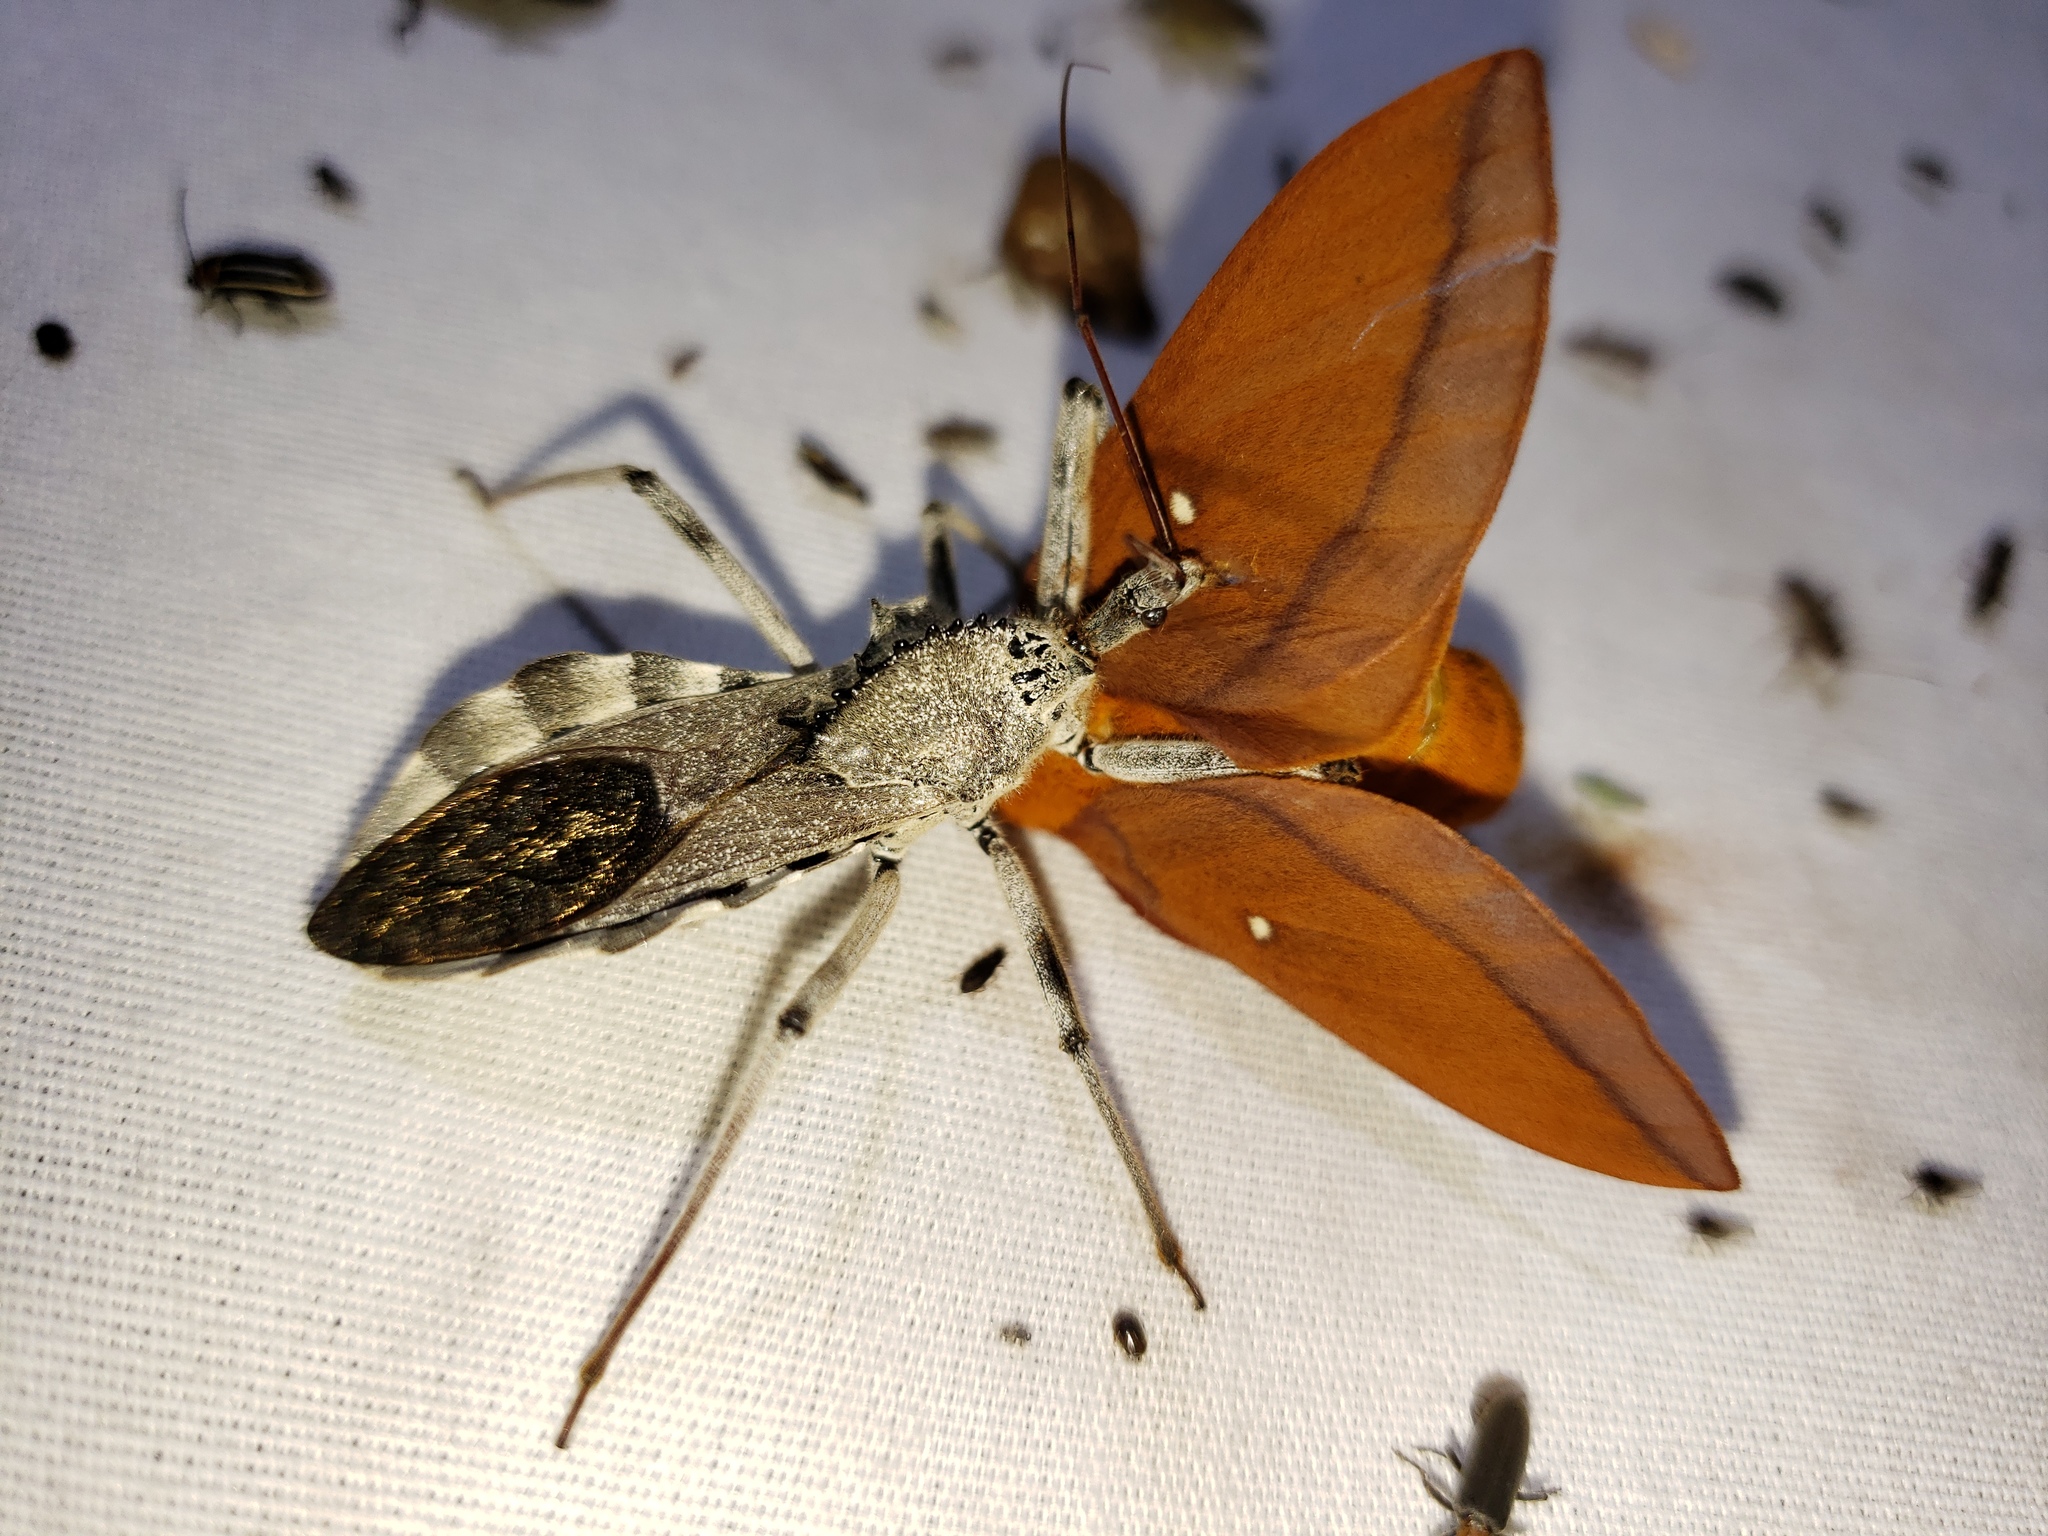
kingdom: Animalia
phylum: Arthropoda
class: Insecta
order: Hemiptera
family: Reduviidae
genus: Arilus
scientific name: Arilus cristatus
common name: North american wheel bug
